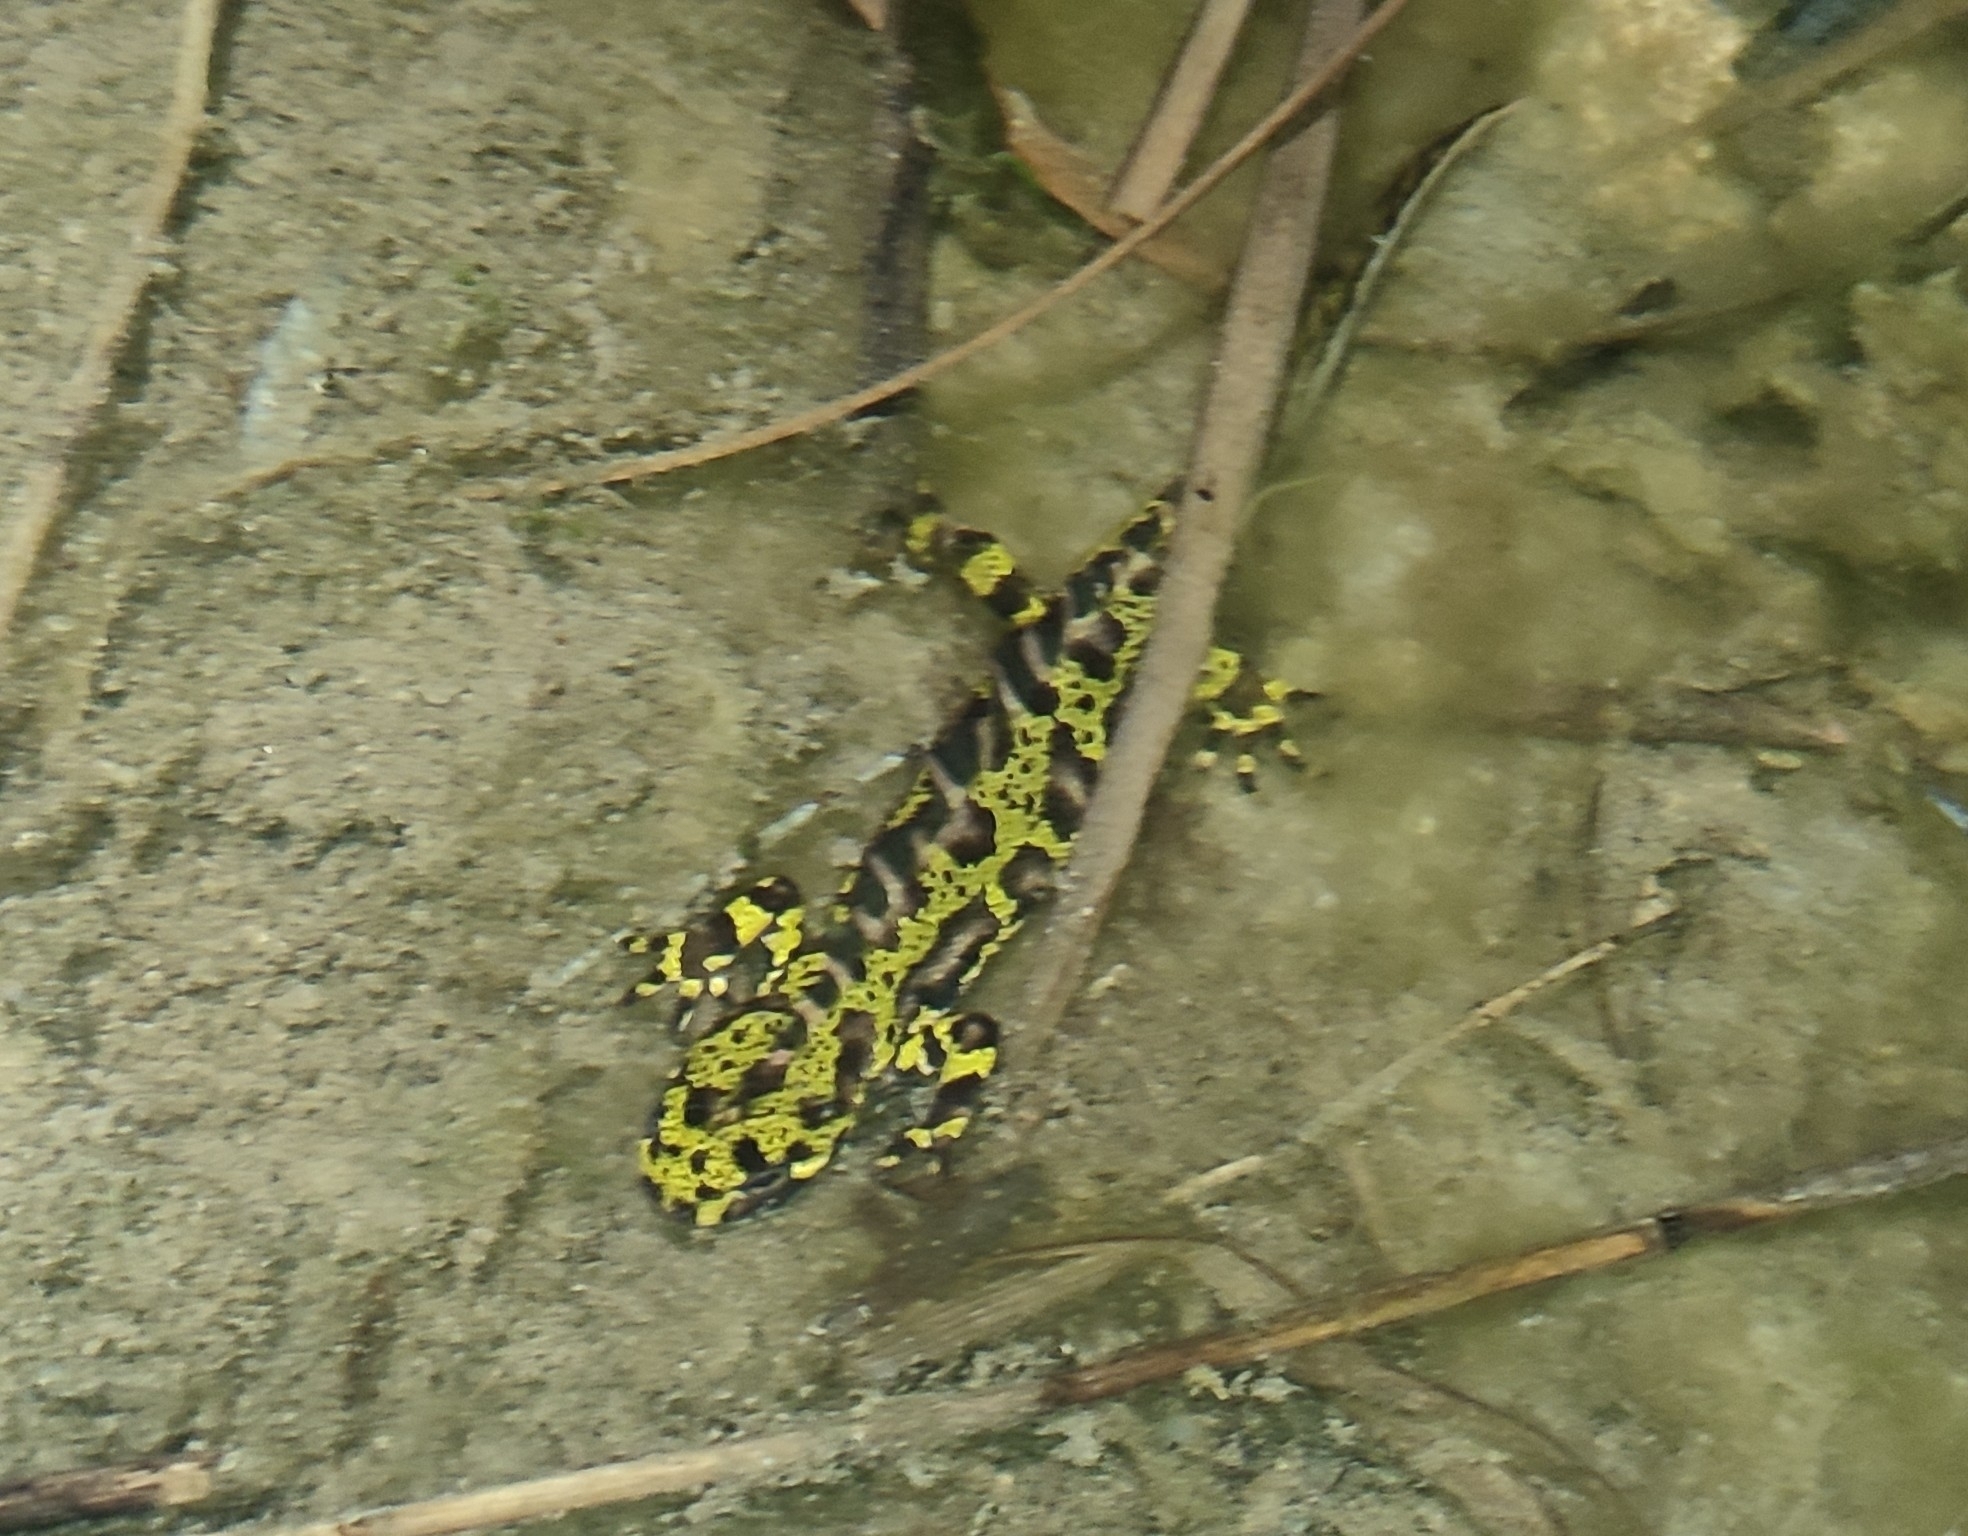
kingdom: Animalia
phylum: Chordata
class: Amphibia
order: Caudata
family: Salamandridae
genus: Triturus
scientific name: Triturus marmoratus
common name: Marbled newt
